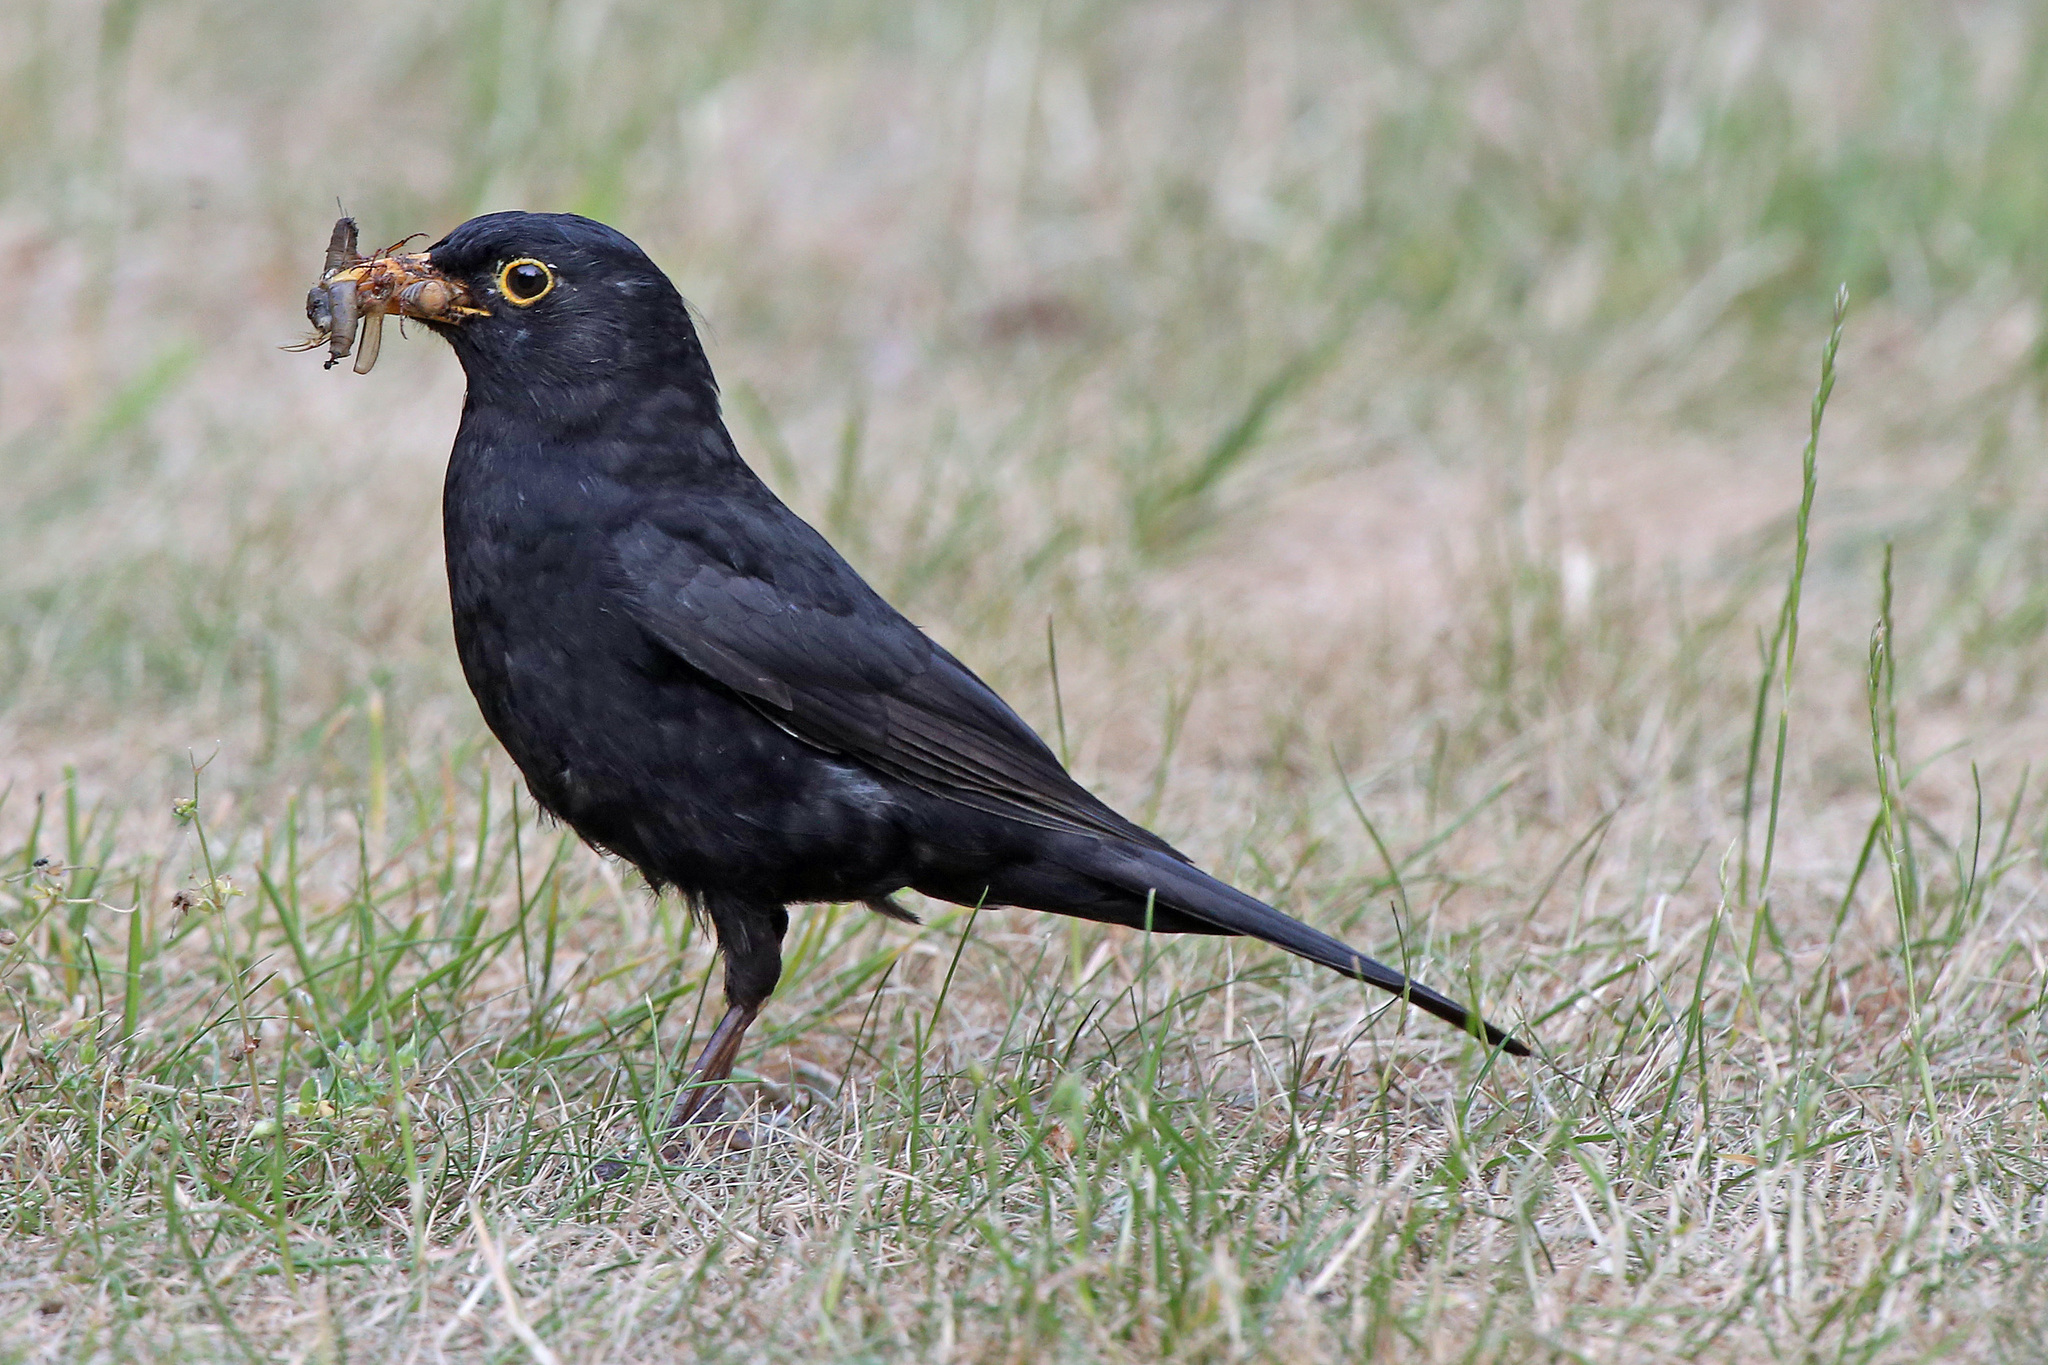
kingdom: Animalia
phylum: Chordata
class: Aves
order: Passeriformes
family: Turdidae
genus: Turdus
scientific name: Turdus merula
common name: Common blackbird
